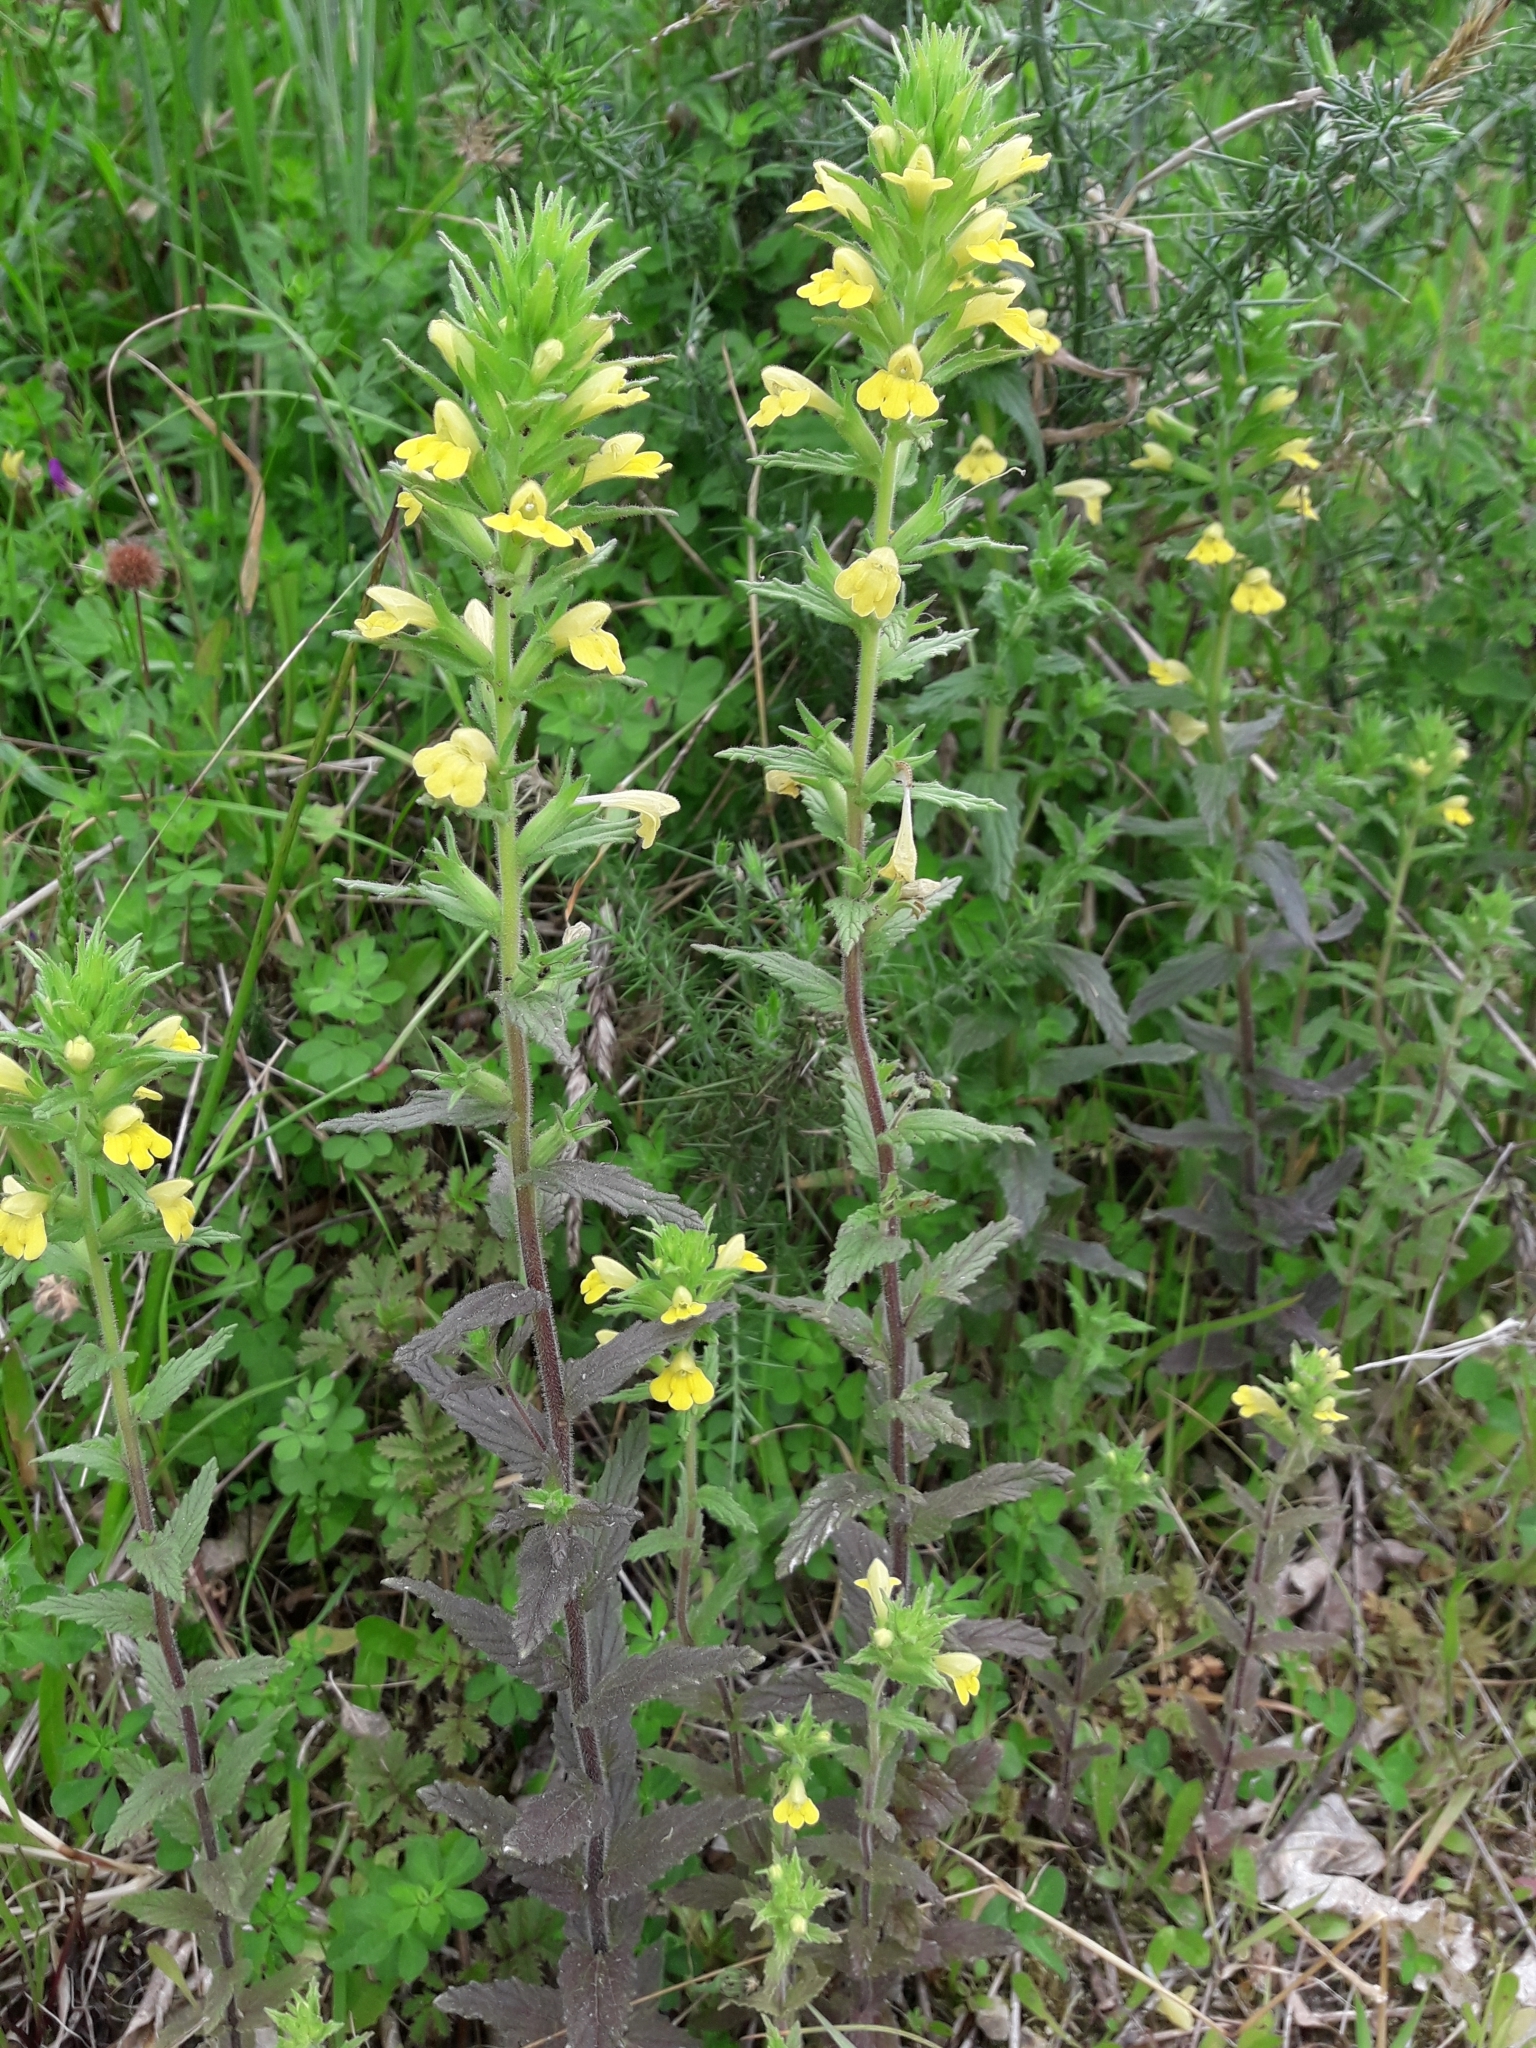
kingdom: Plantae
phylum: Tracheophyta
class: Magnoliopsida
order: Lamiales
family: Orobanchaceae
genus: Bellardia
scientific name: Bellardia viscosa
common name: Sticky parentucellia
